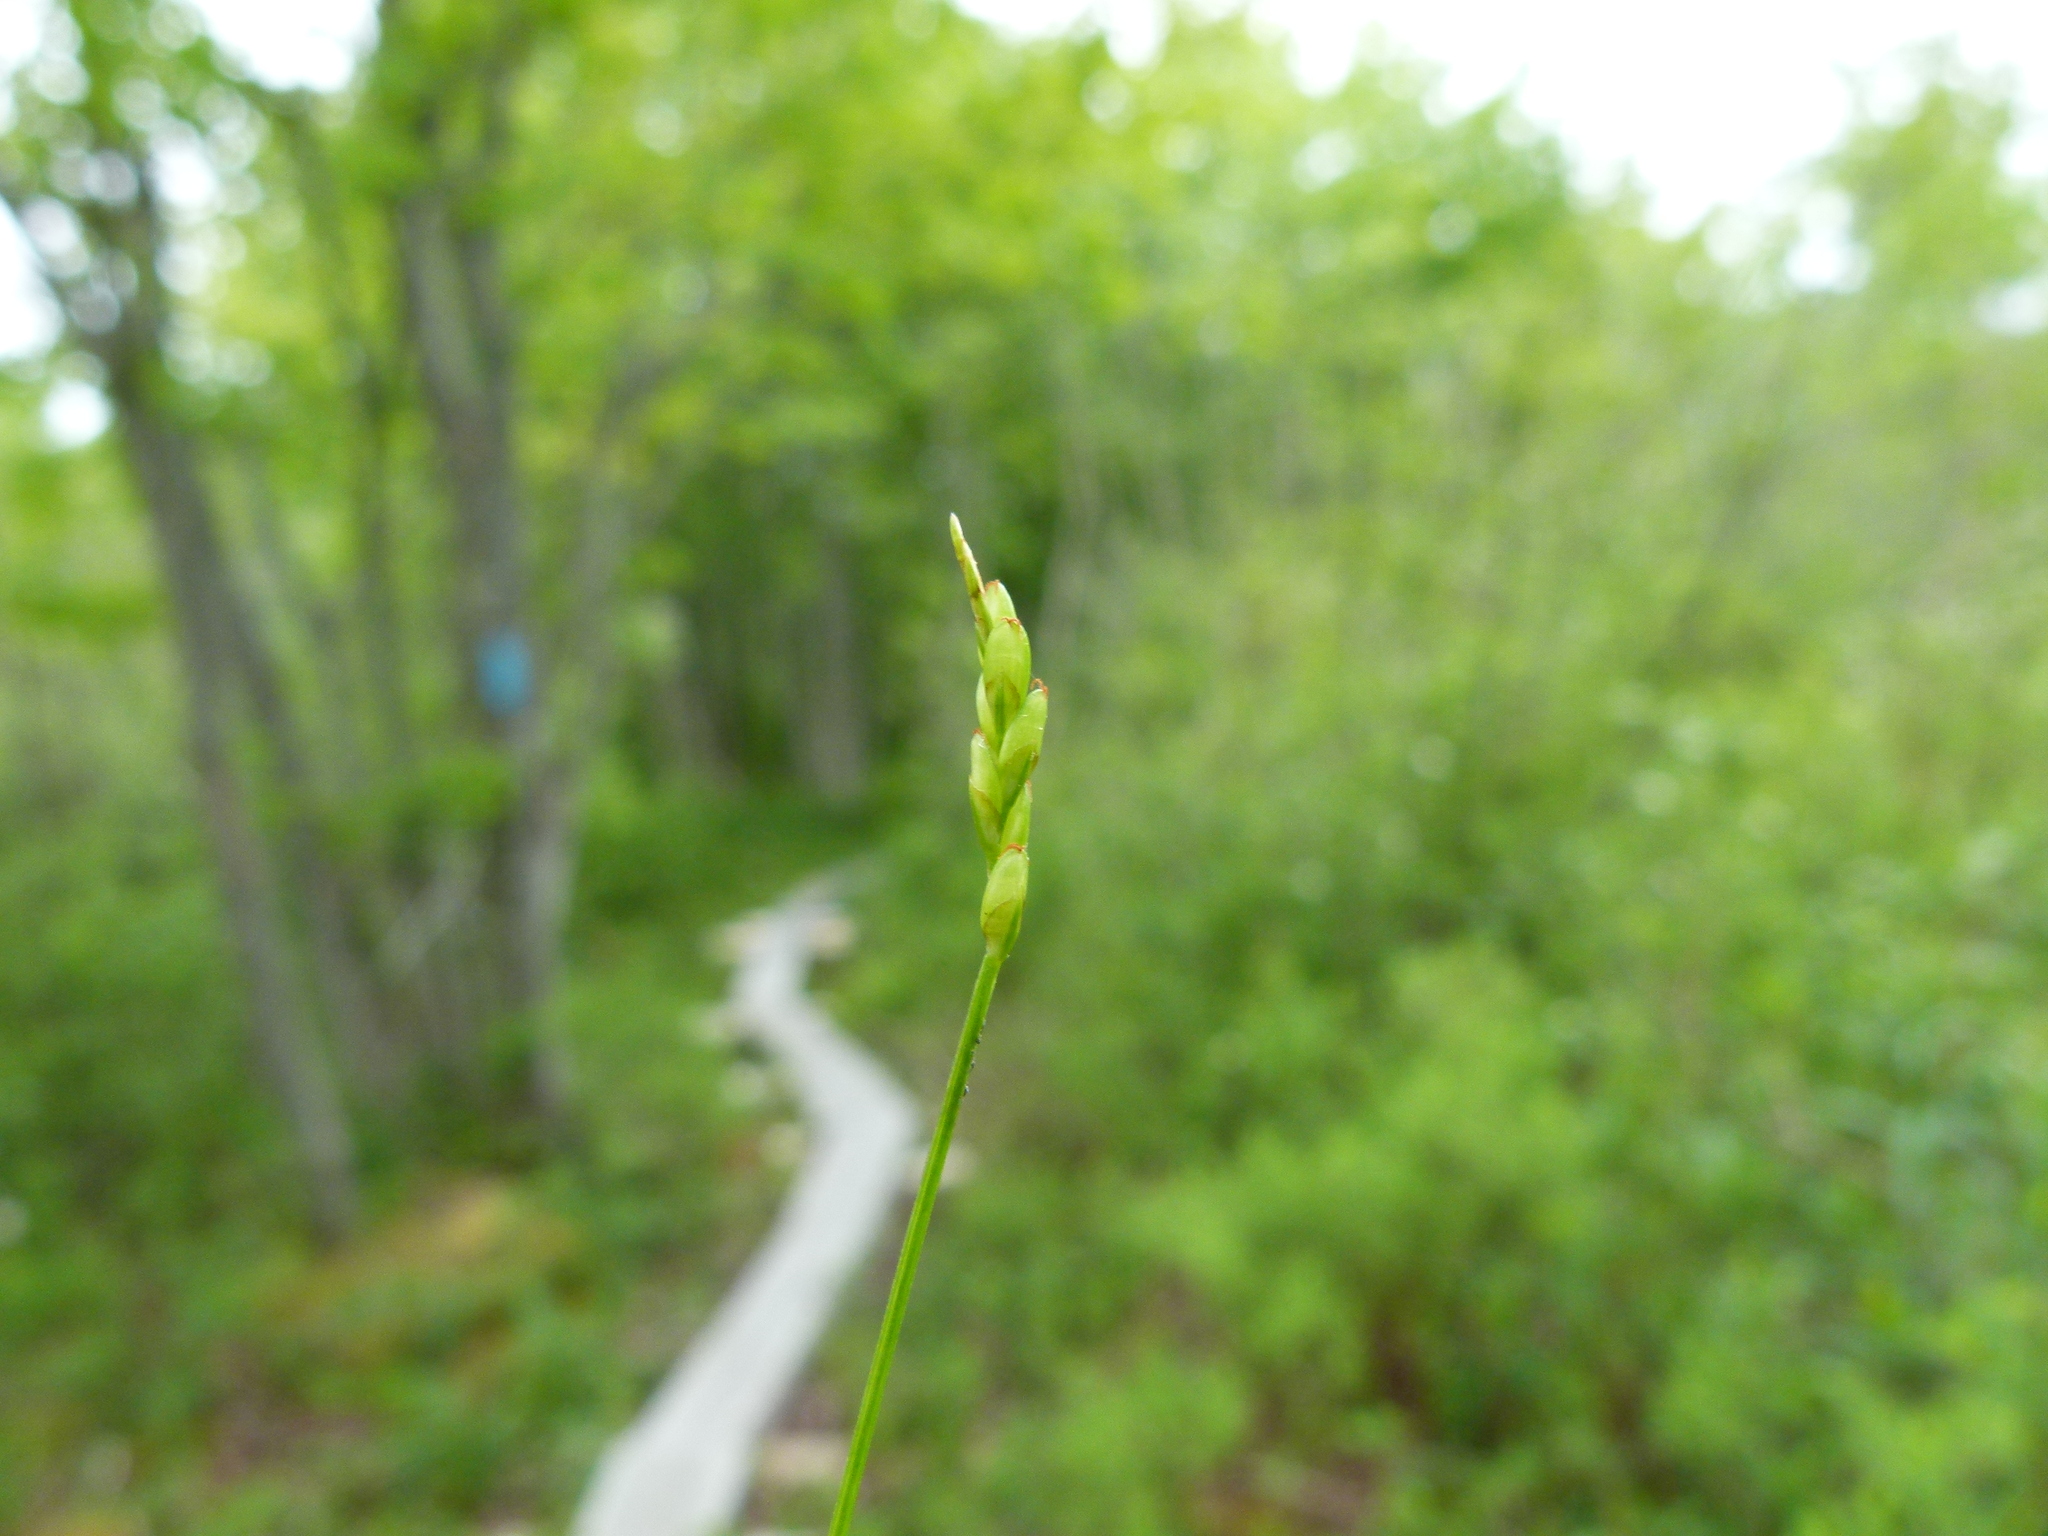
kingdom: Plantae
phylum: Tracheophyta
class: Liliopsida
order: Poales
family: Cyperaceae
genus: Carex
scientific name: Carex leptalea
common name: Bristly-stalked sedge
